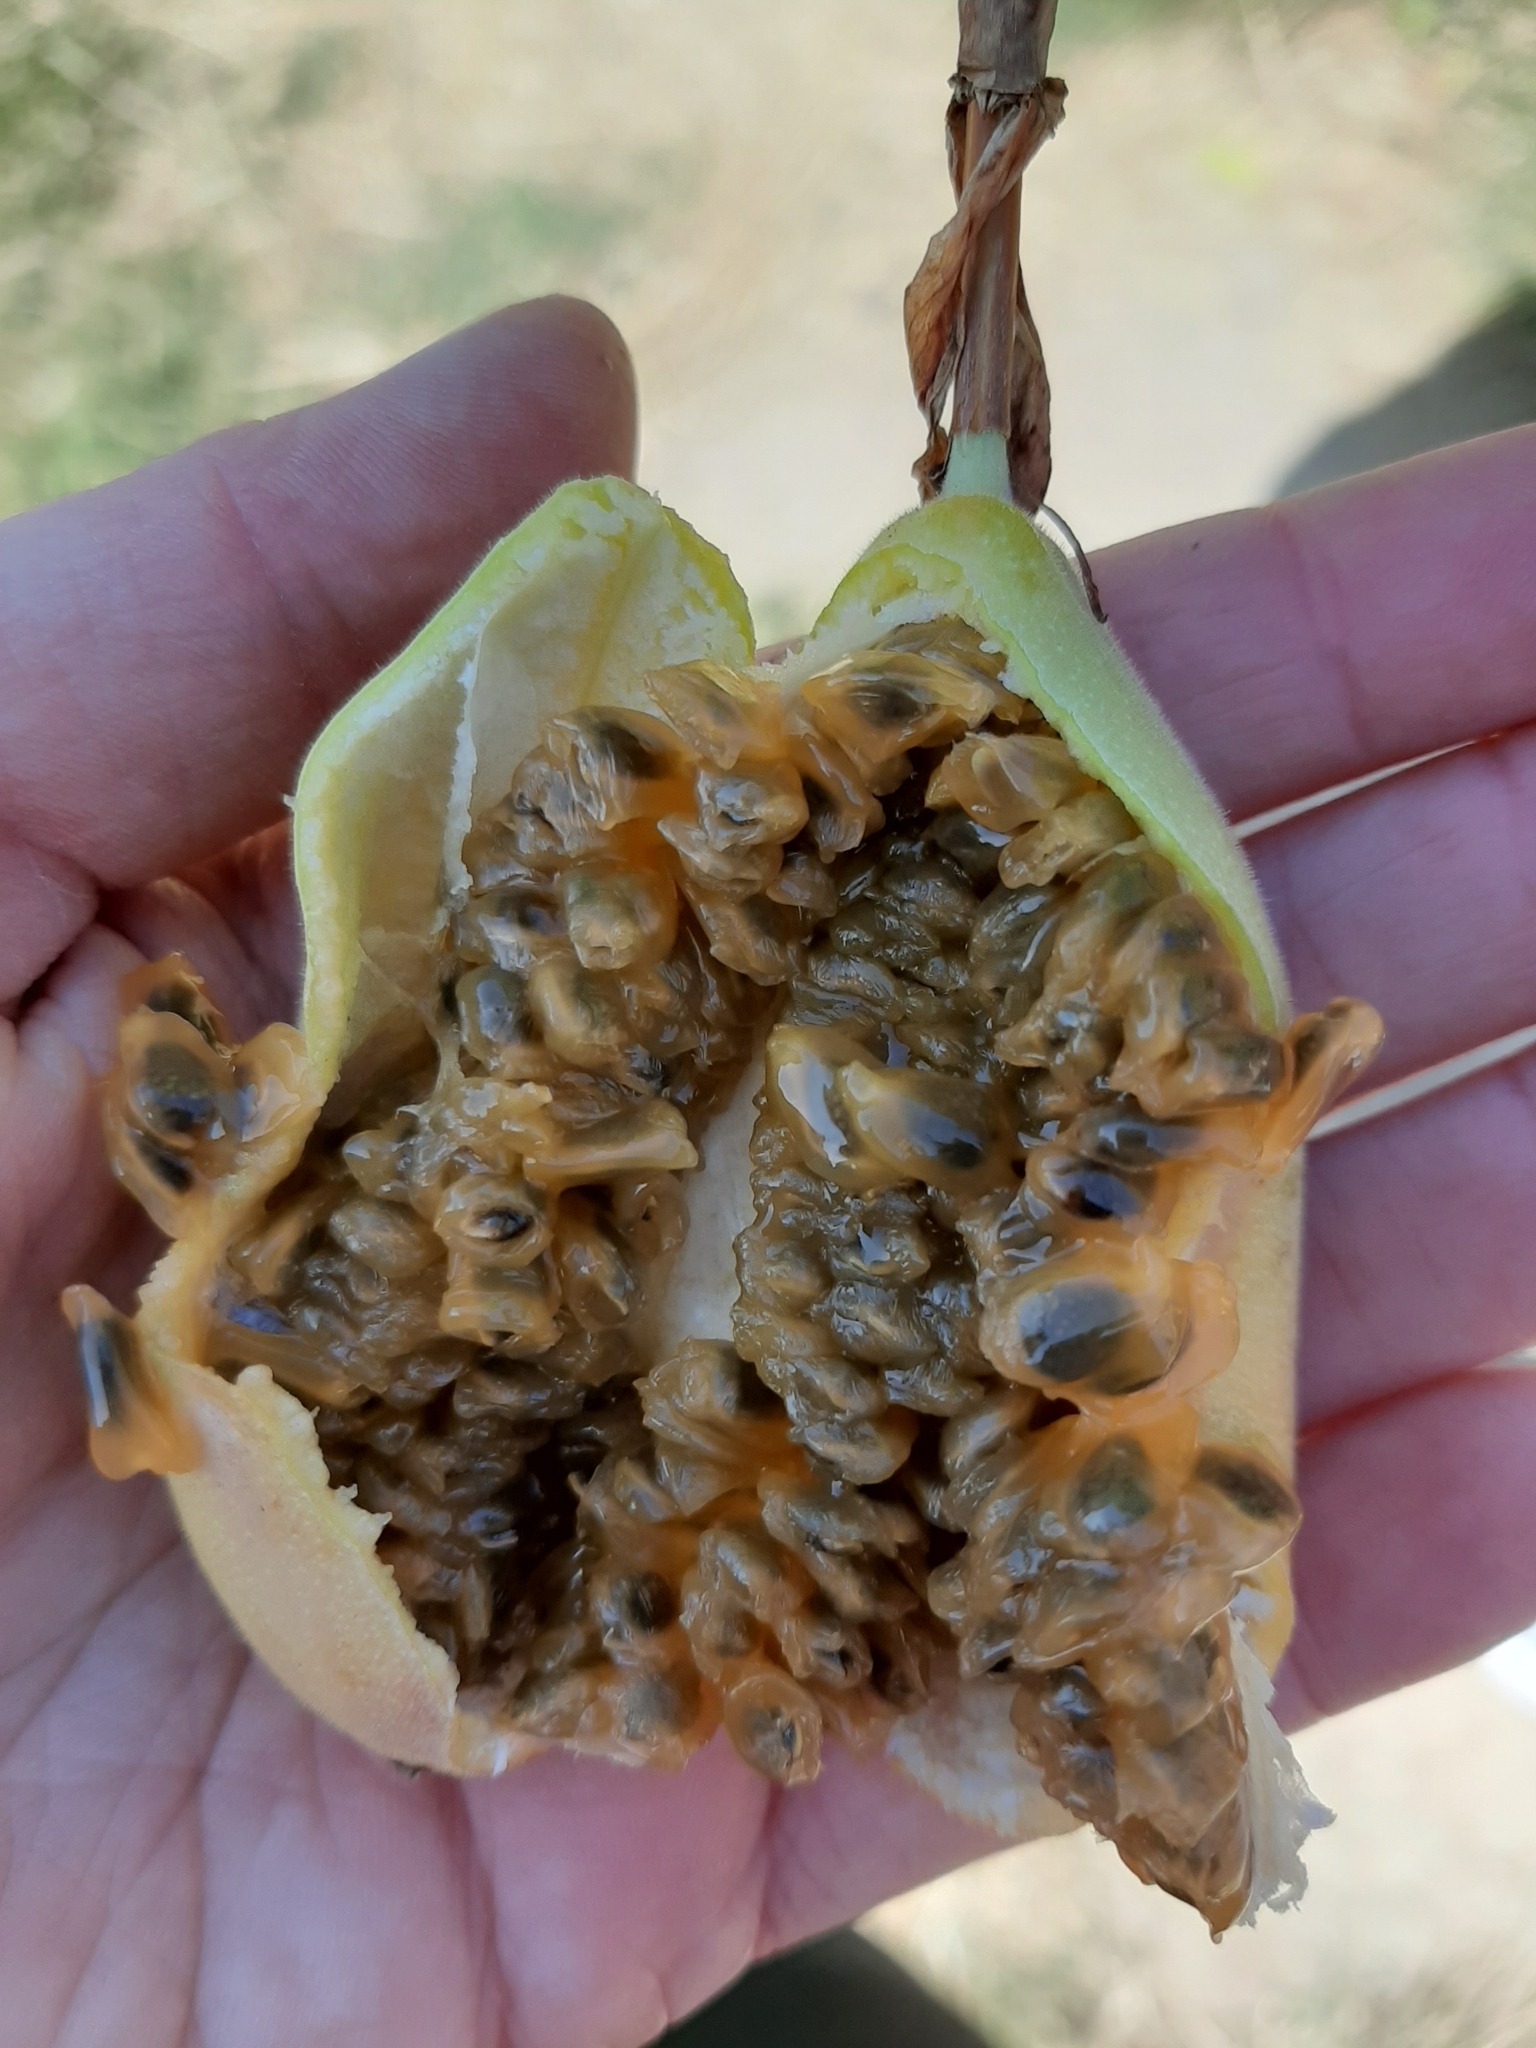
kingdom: Plantae
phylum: Tracheophyta
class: Magnoliopsida
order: Malpighiales
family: Passifloraceae
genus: Passiflora
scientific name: Passiflora tripartita
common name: Banana poka
